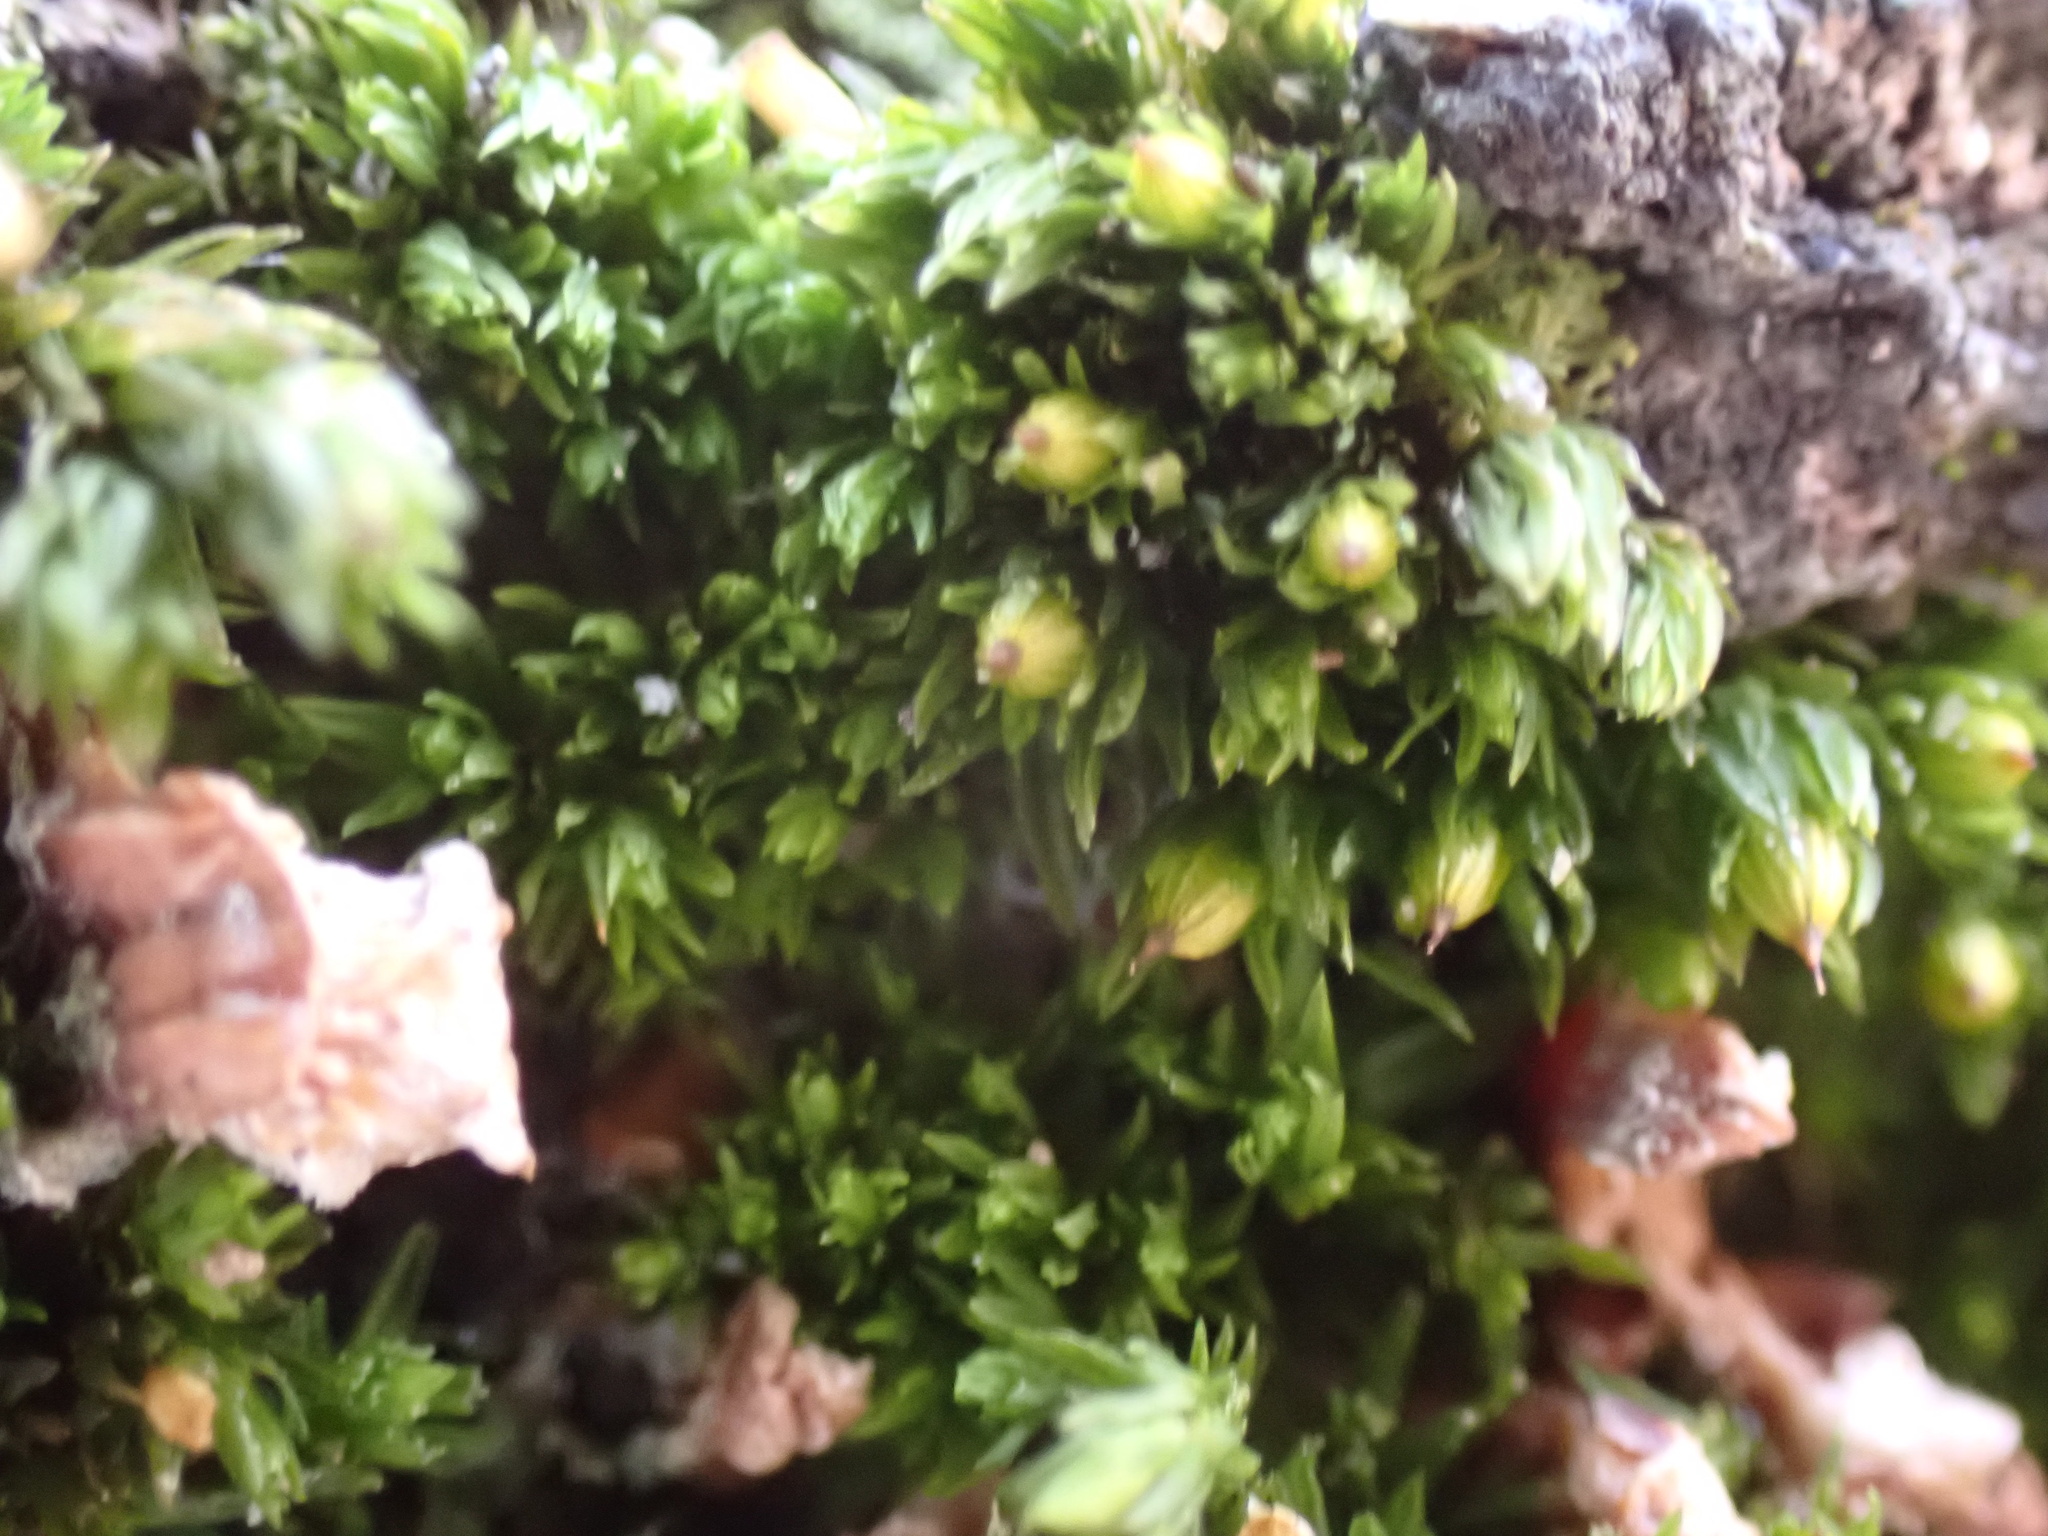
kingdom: Plantae
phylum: Bryophyta
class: Bryopsida
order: Orthotrichales
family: Orthotrichaceae
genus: Ulota
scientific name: Ulota crispa
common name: Crisped pincushion moss
